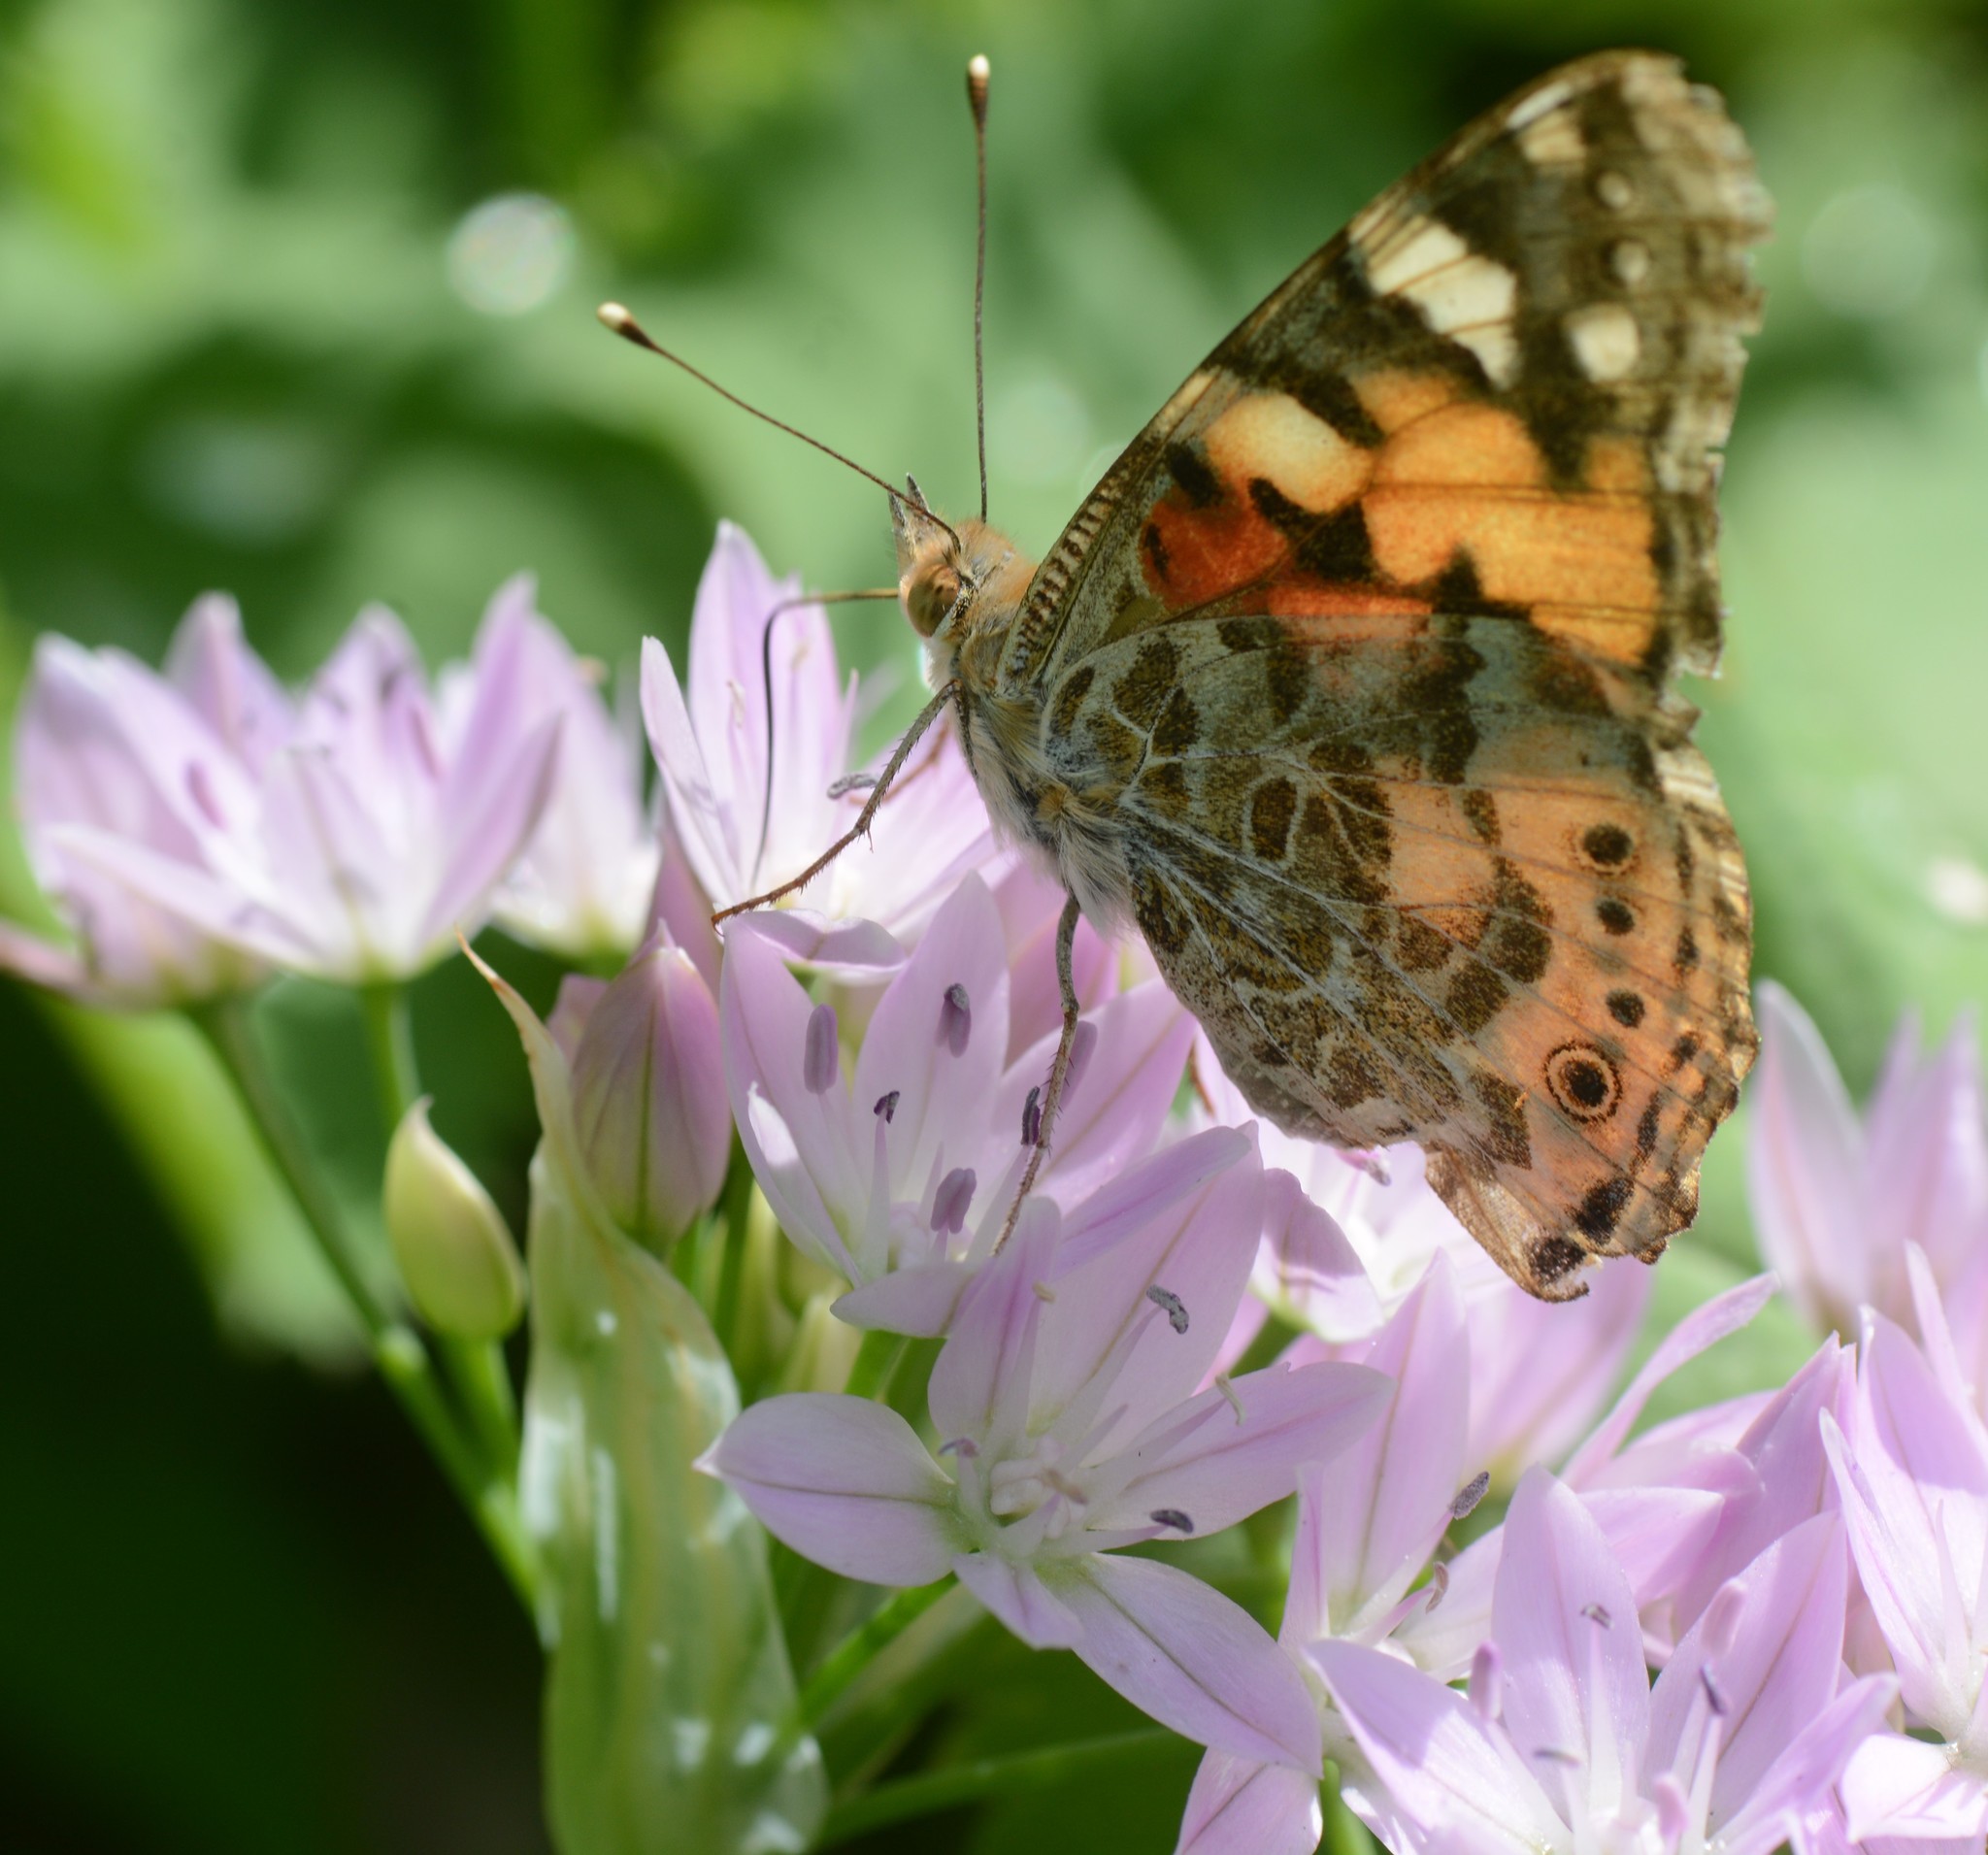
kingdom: Animalia
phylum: Arthropoda
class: Insecta
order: Lepidoptera
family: Nymphalidae
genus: Vanessa
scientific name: Vanessa cardui
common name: Painted lady
